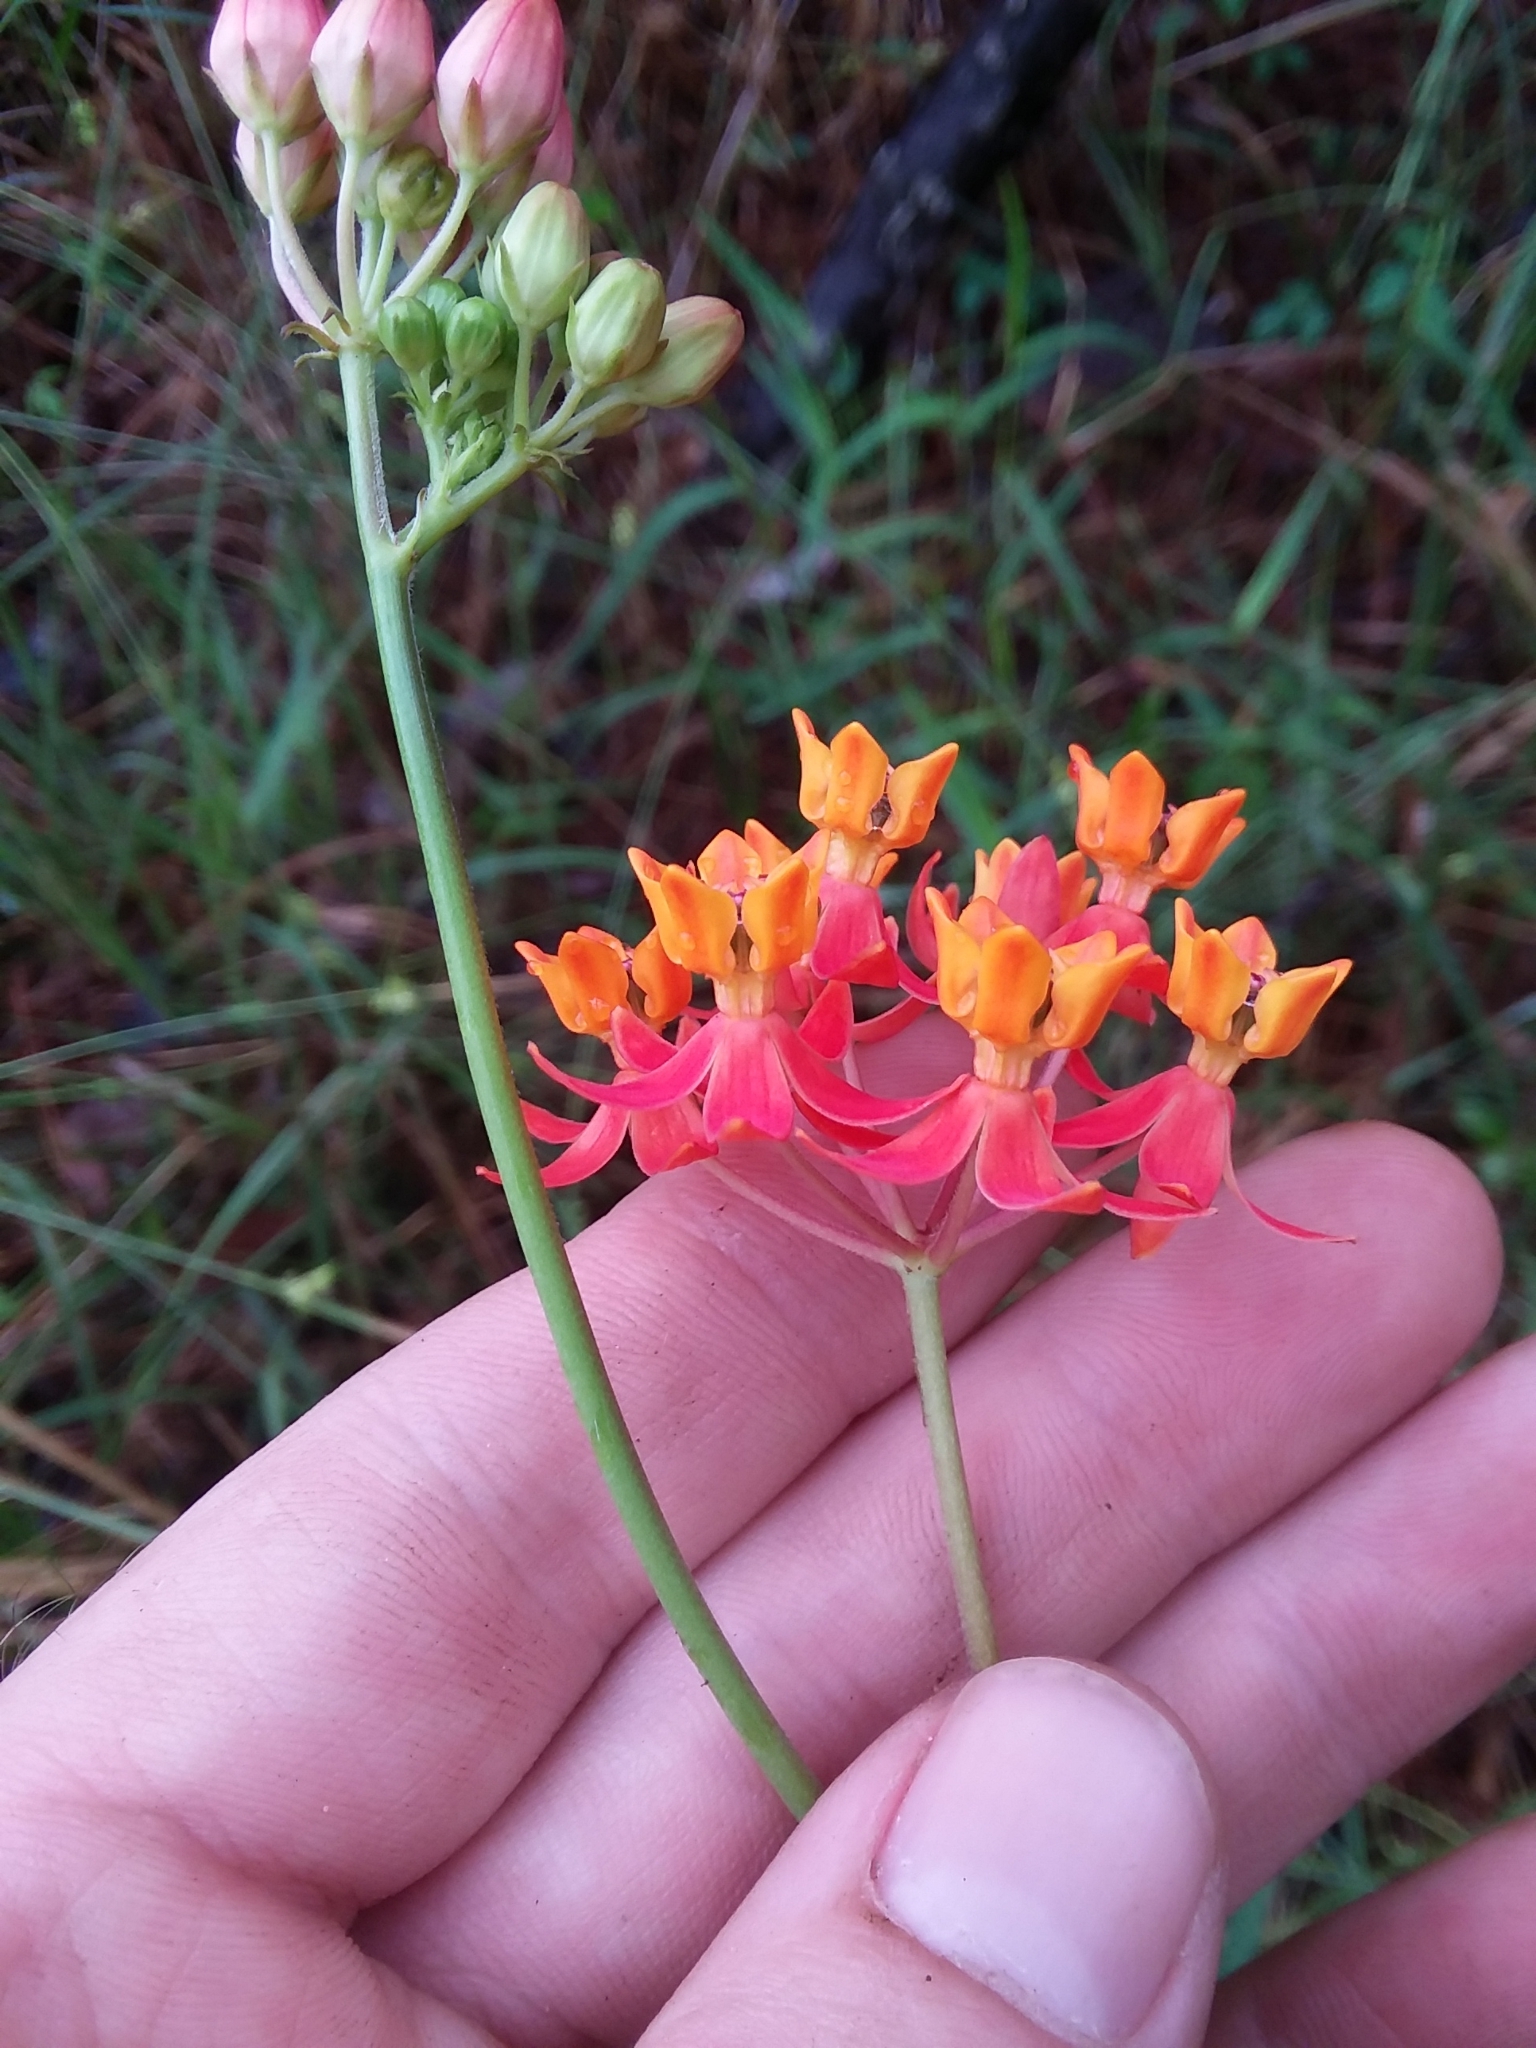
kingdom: Plantae
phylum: Tracheophyta
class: Magnoliopsida
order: Gentianales
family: Apocynaceae
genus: Asclepias
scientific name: Asclepias lanceolata
